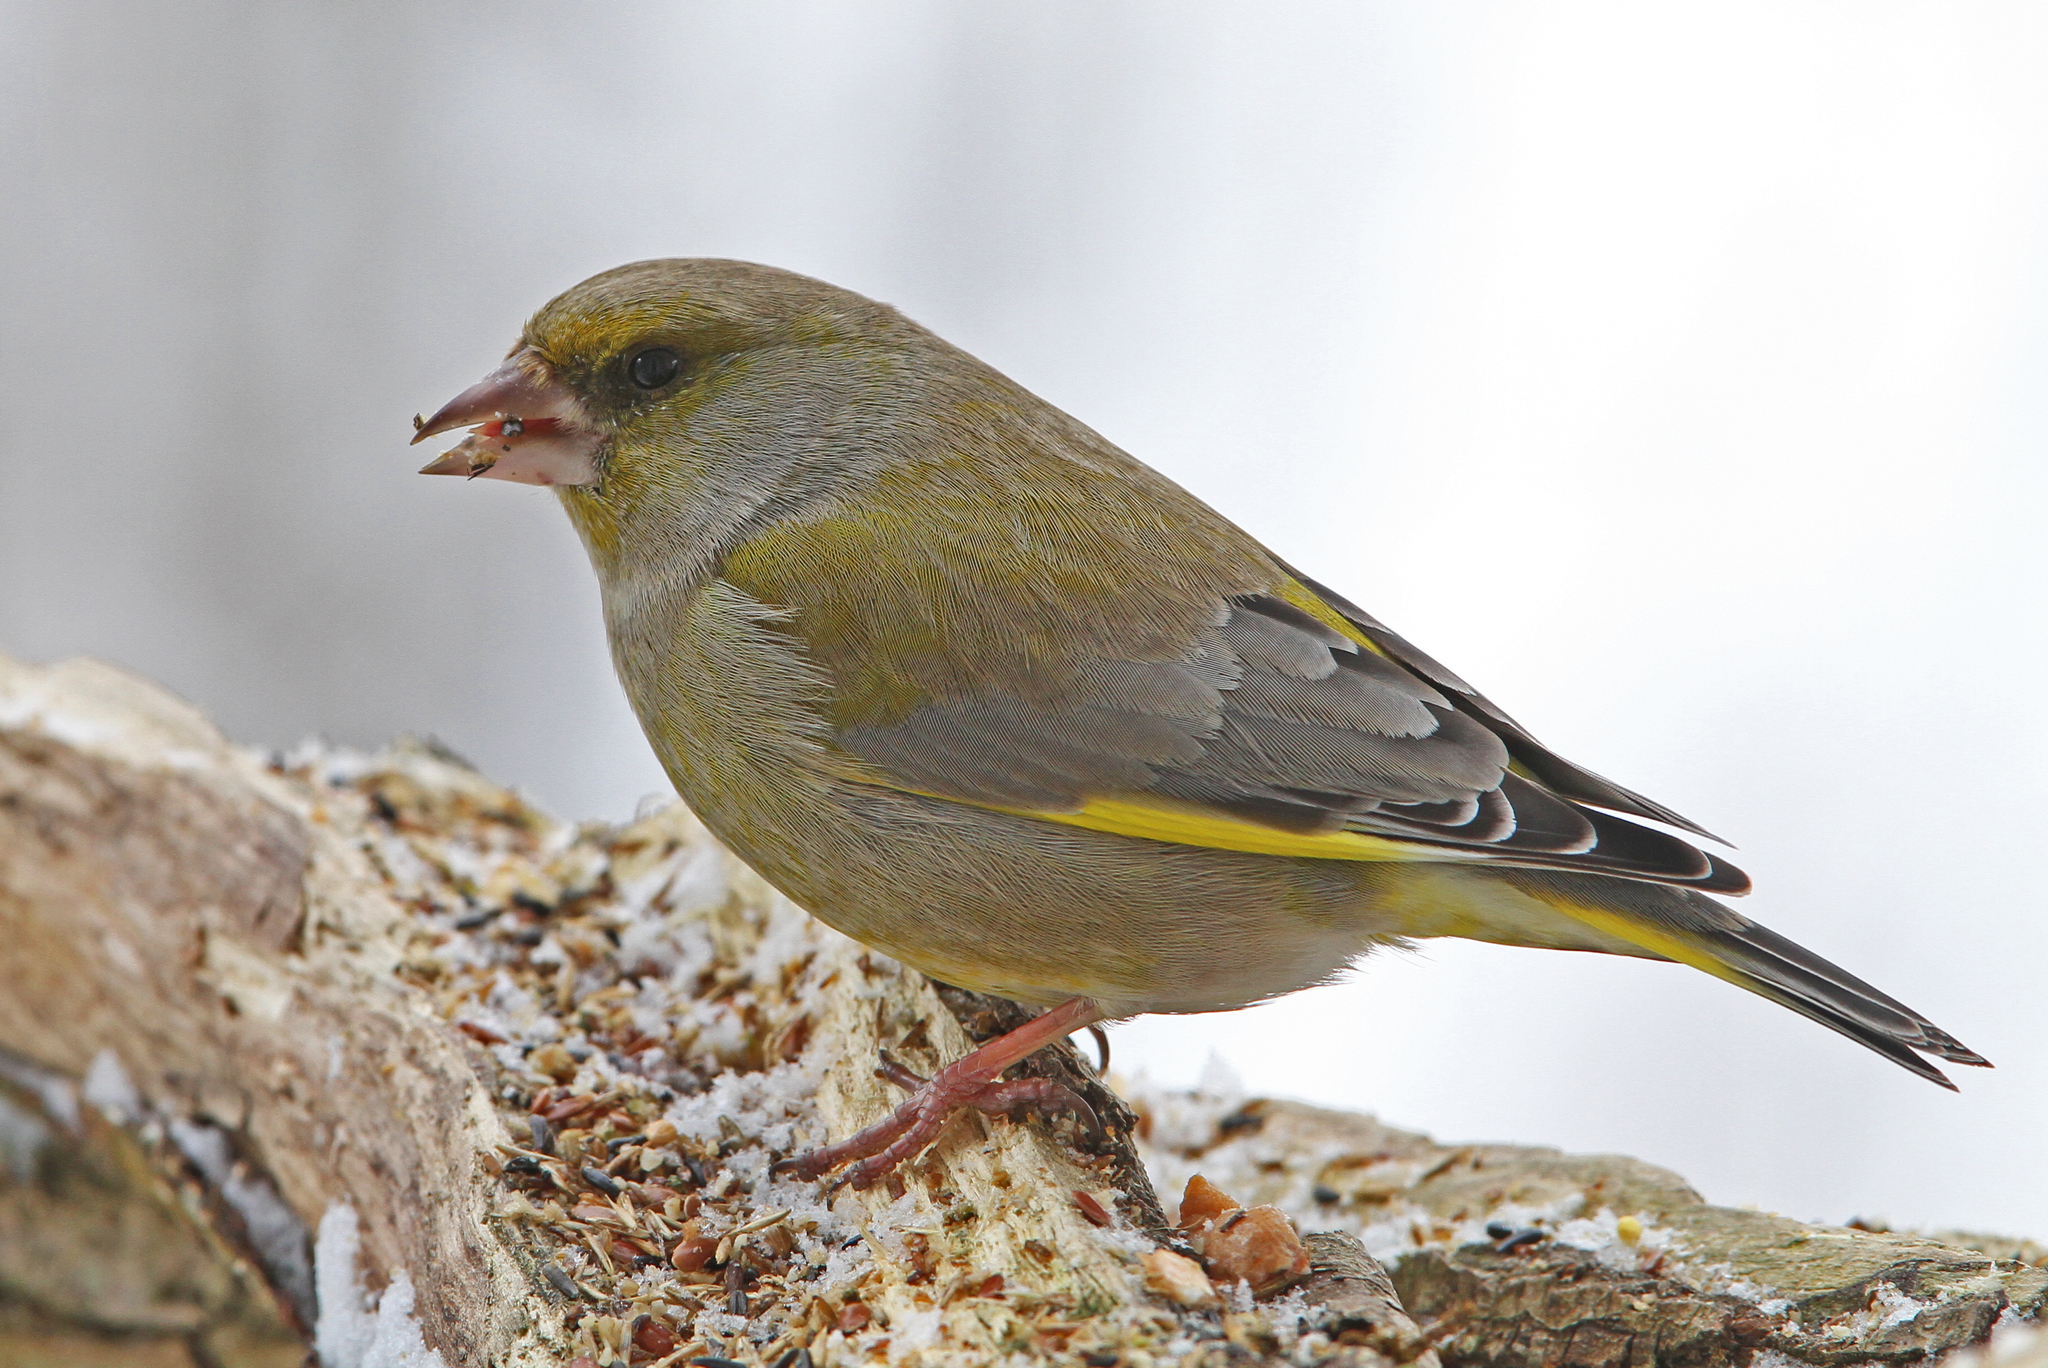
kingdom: Plantae
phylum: Tracheophyta
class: Liliopsida
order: Poales
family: Poaceae
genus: Chloris
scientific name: Chloris chloris
